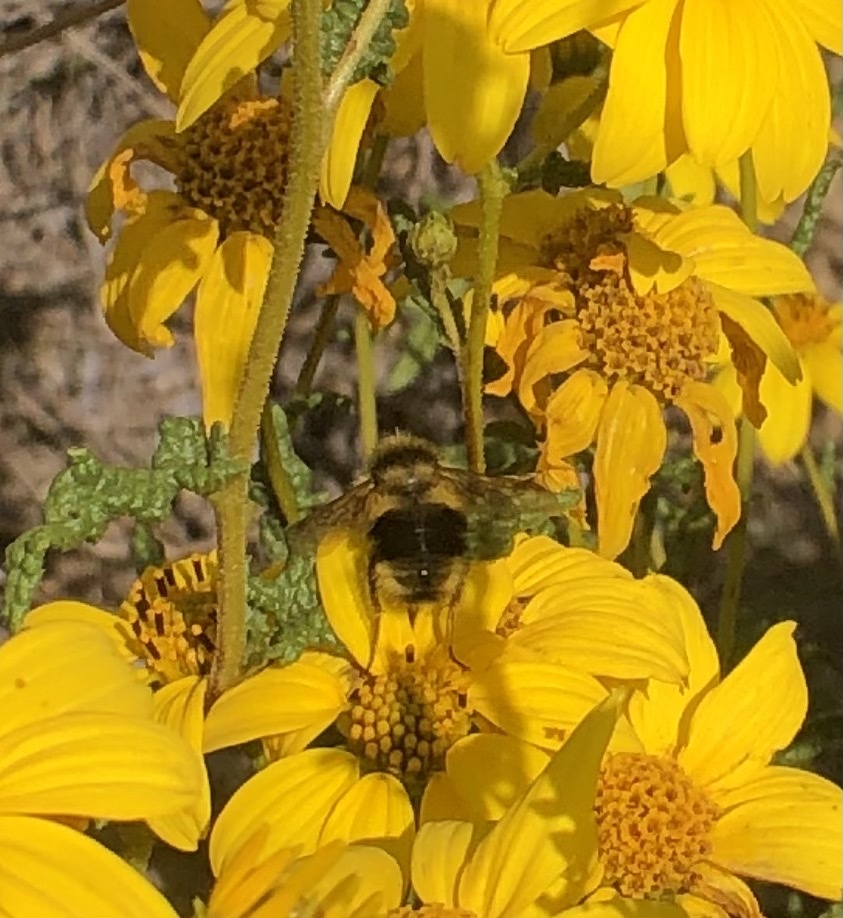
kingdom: Animalia
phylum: Arthropoda
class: Insecta
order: Hymenoptera
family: Apidae
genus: Bombus
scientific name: Bombus melanopygus
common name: Black tail bumble bee
